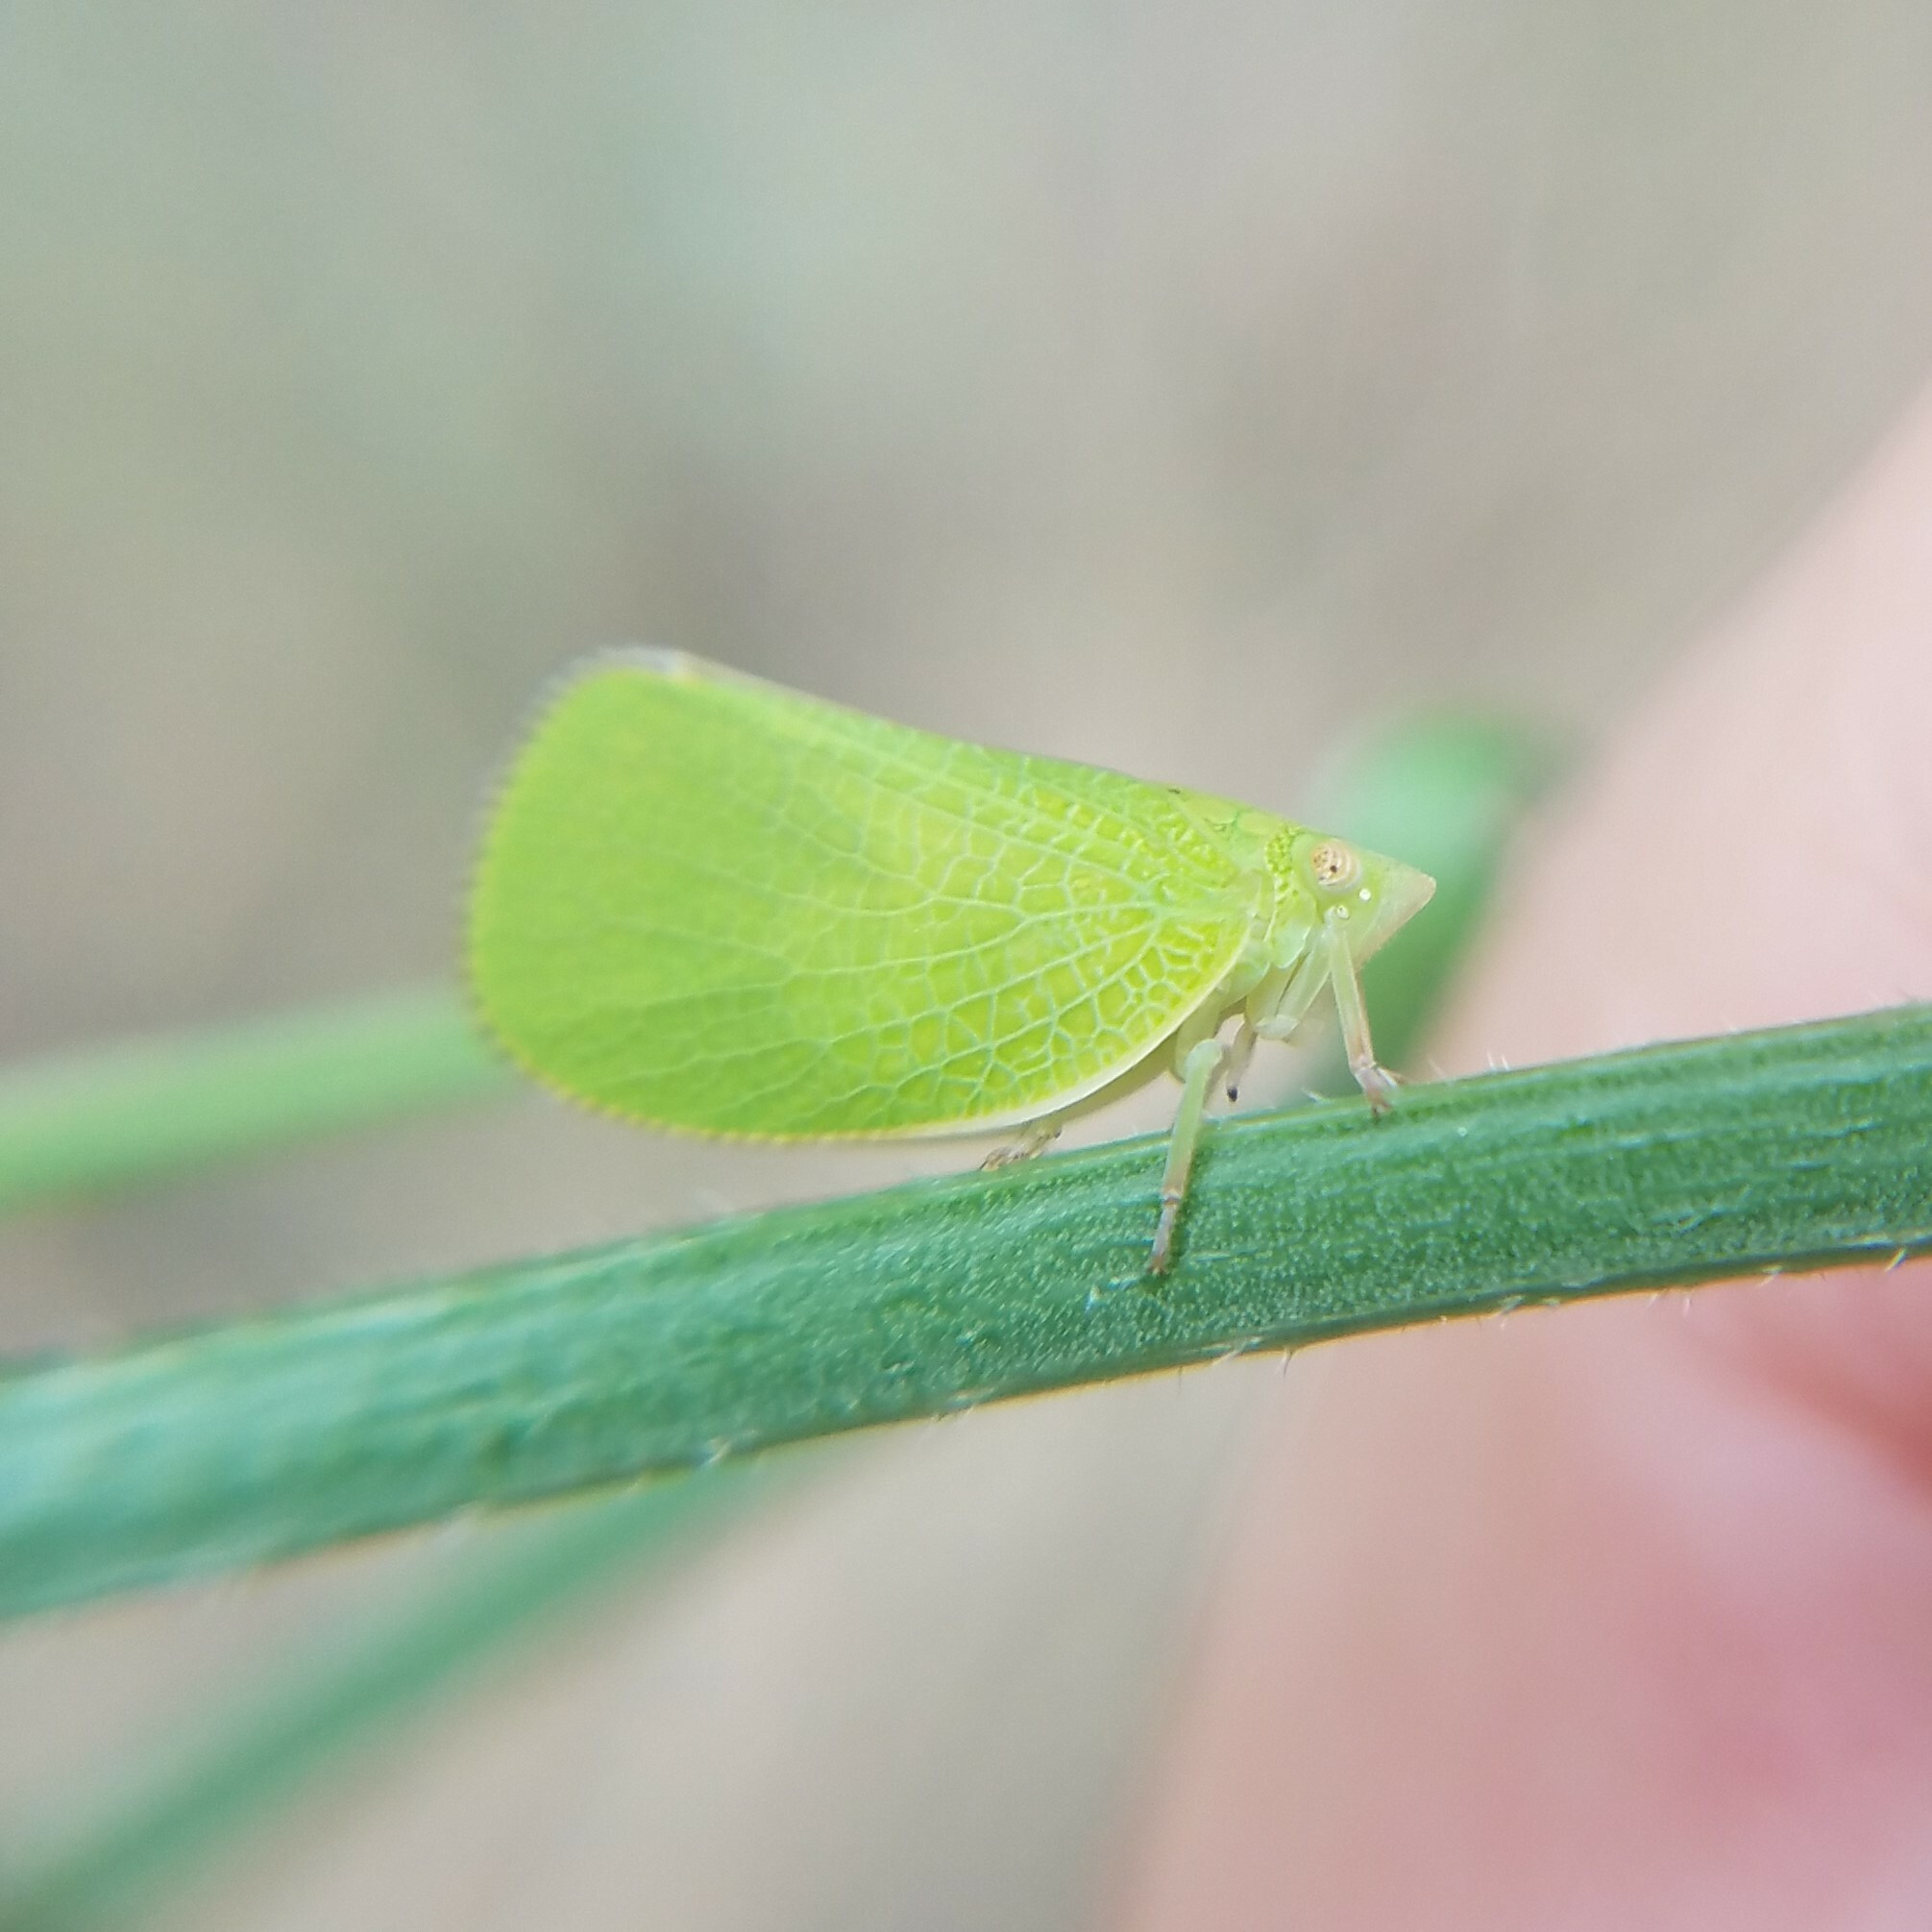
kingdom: Animalia
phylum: Arthropoda
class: Insecta
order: Hemiptera
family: Acanaloniidae
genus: Acanalonia
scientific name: Acanalonia conica
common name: Green cone-headed planthopper
